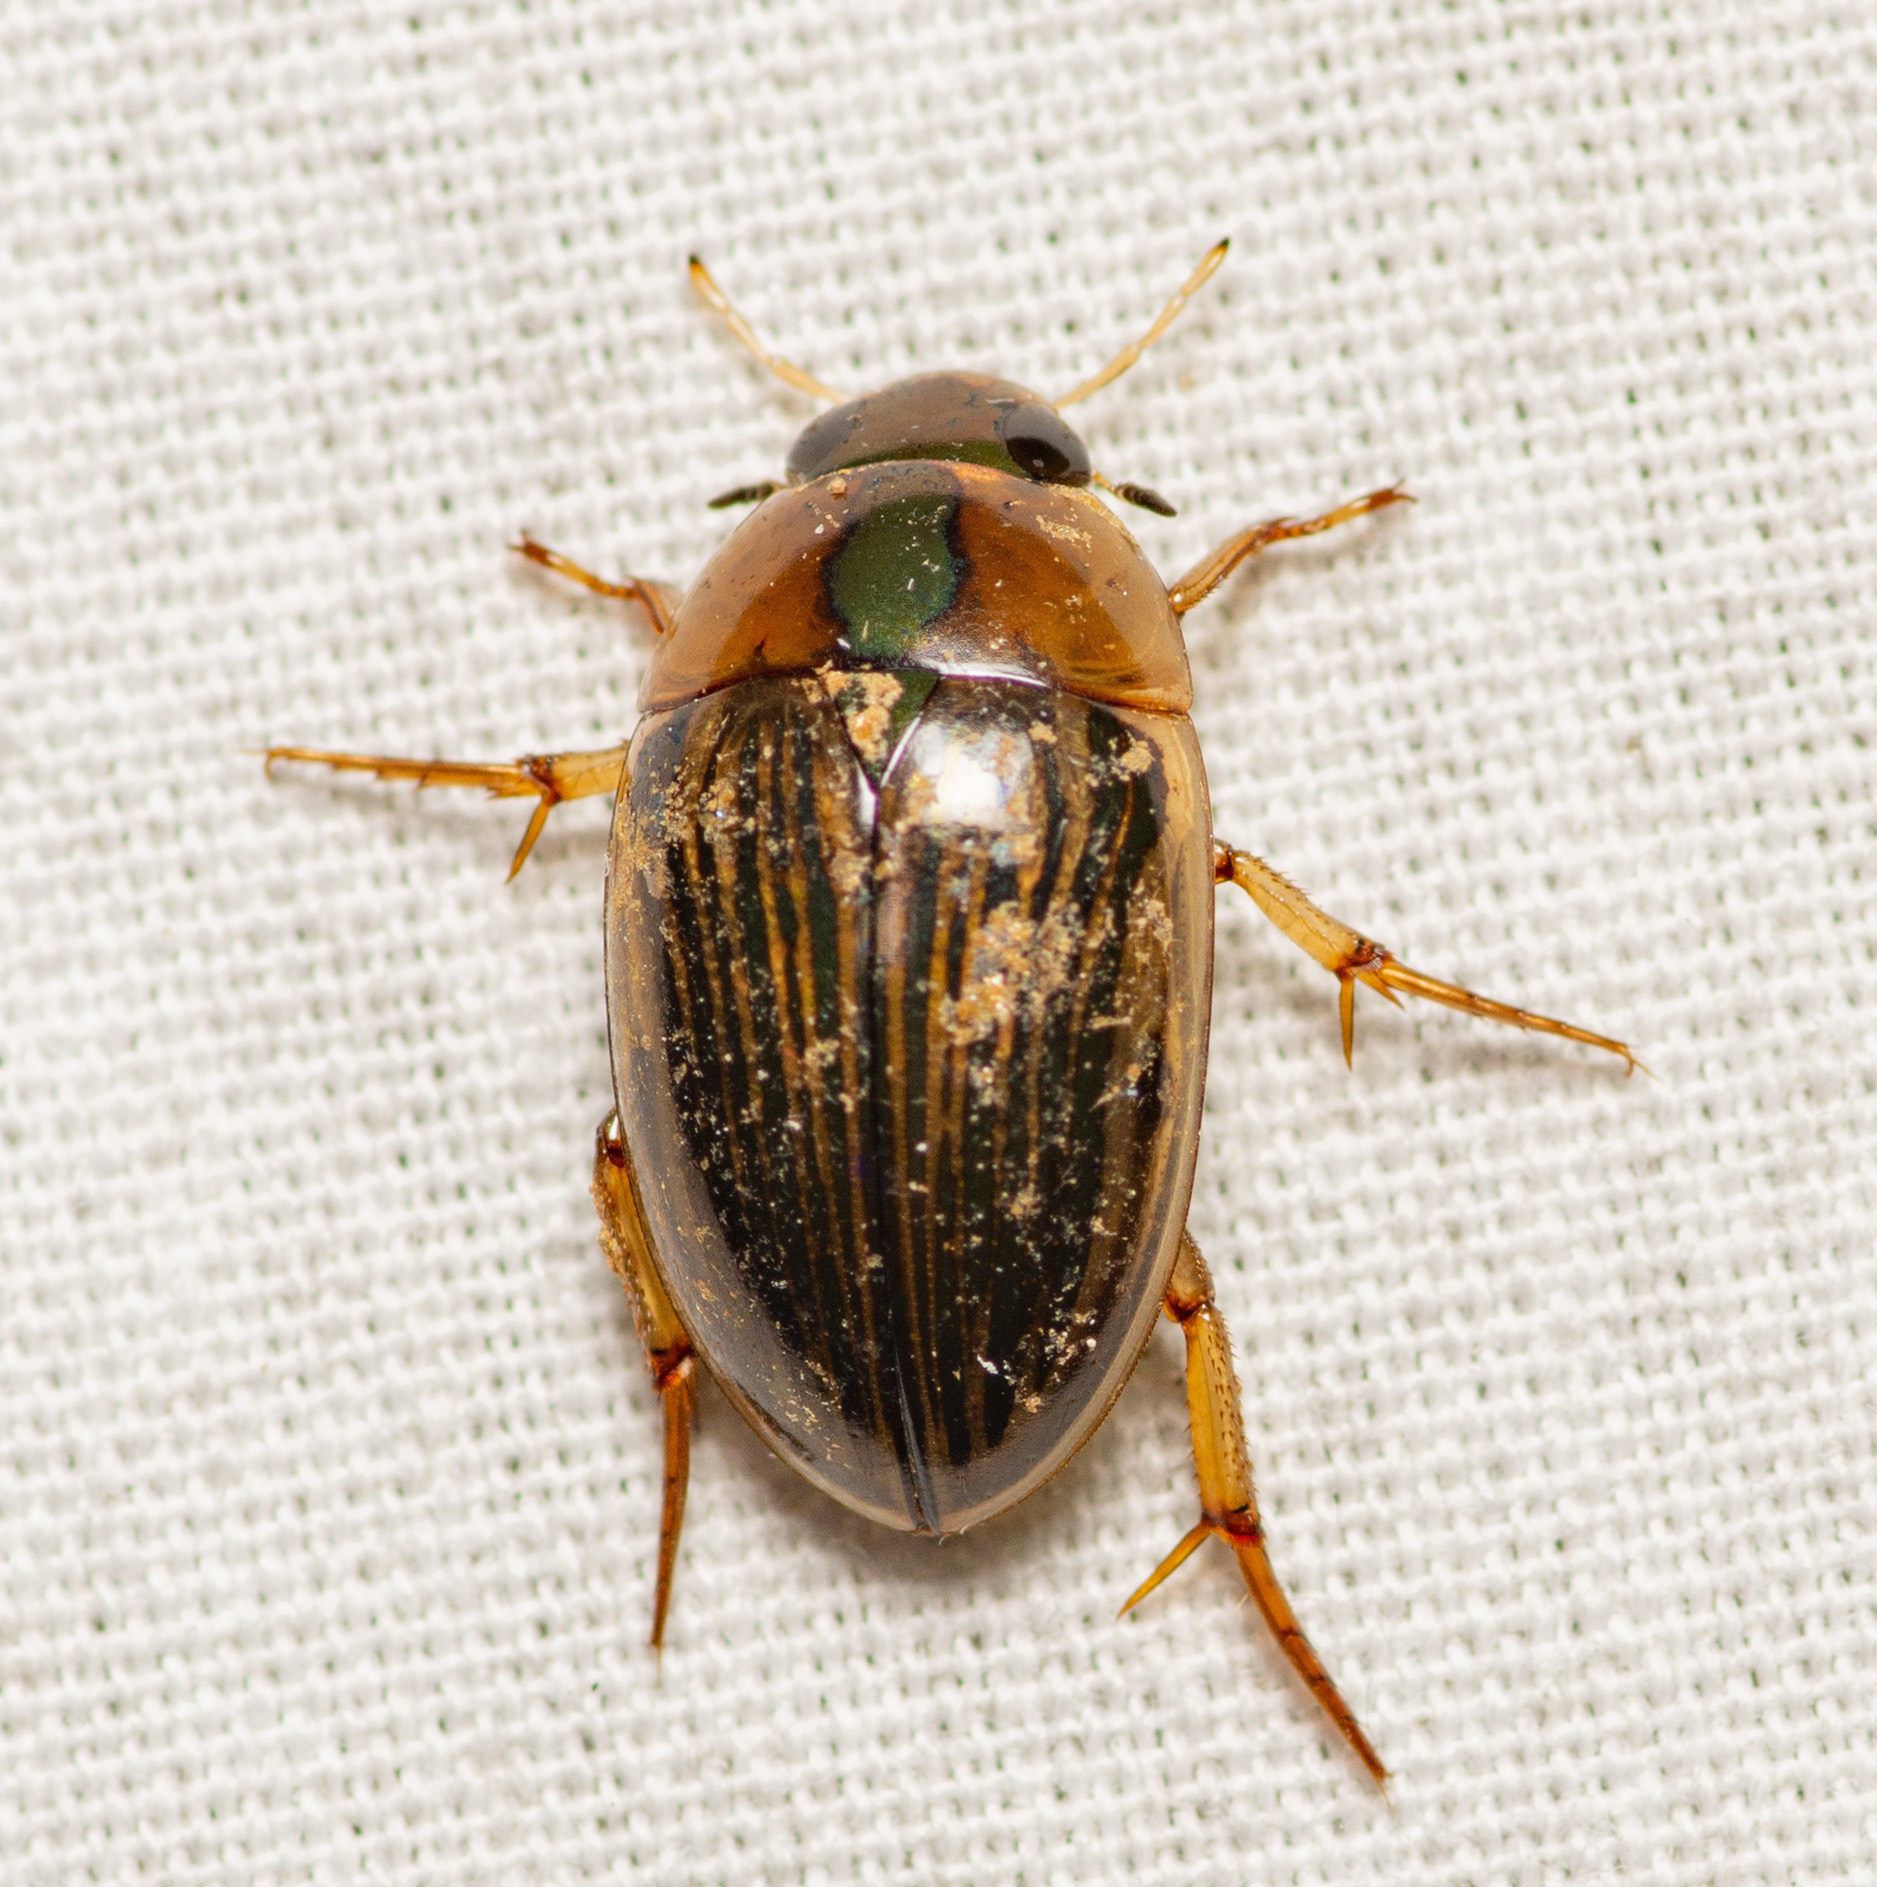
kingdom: Animalia
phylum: Arthropoda
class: Insecta
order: Coleoptera
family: Hydrophilidae
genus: Tropisternus
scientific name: Tropisternus collaris
